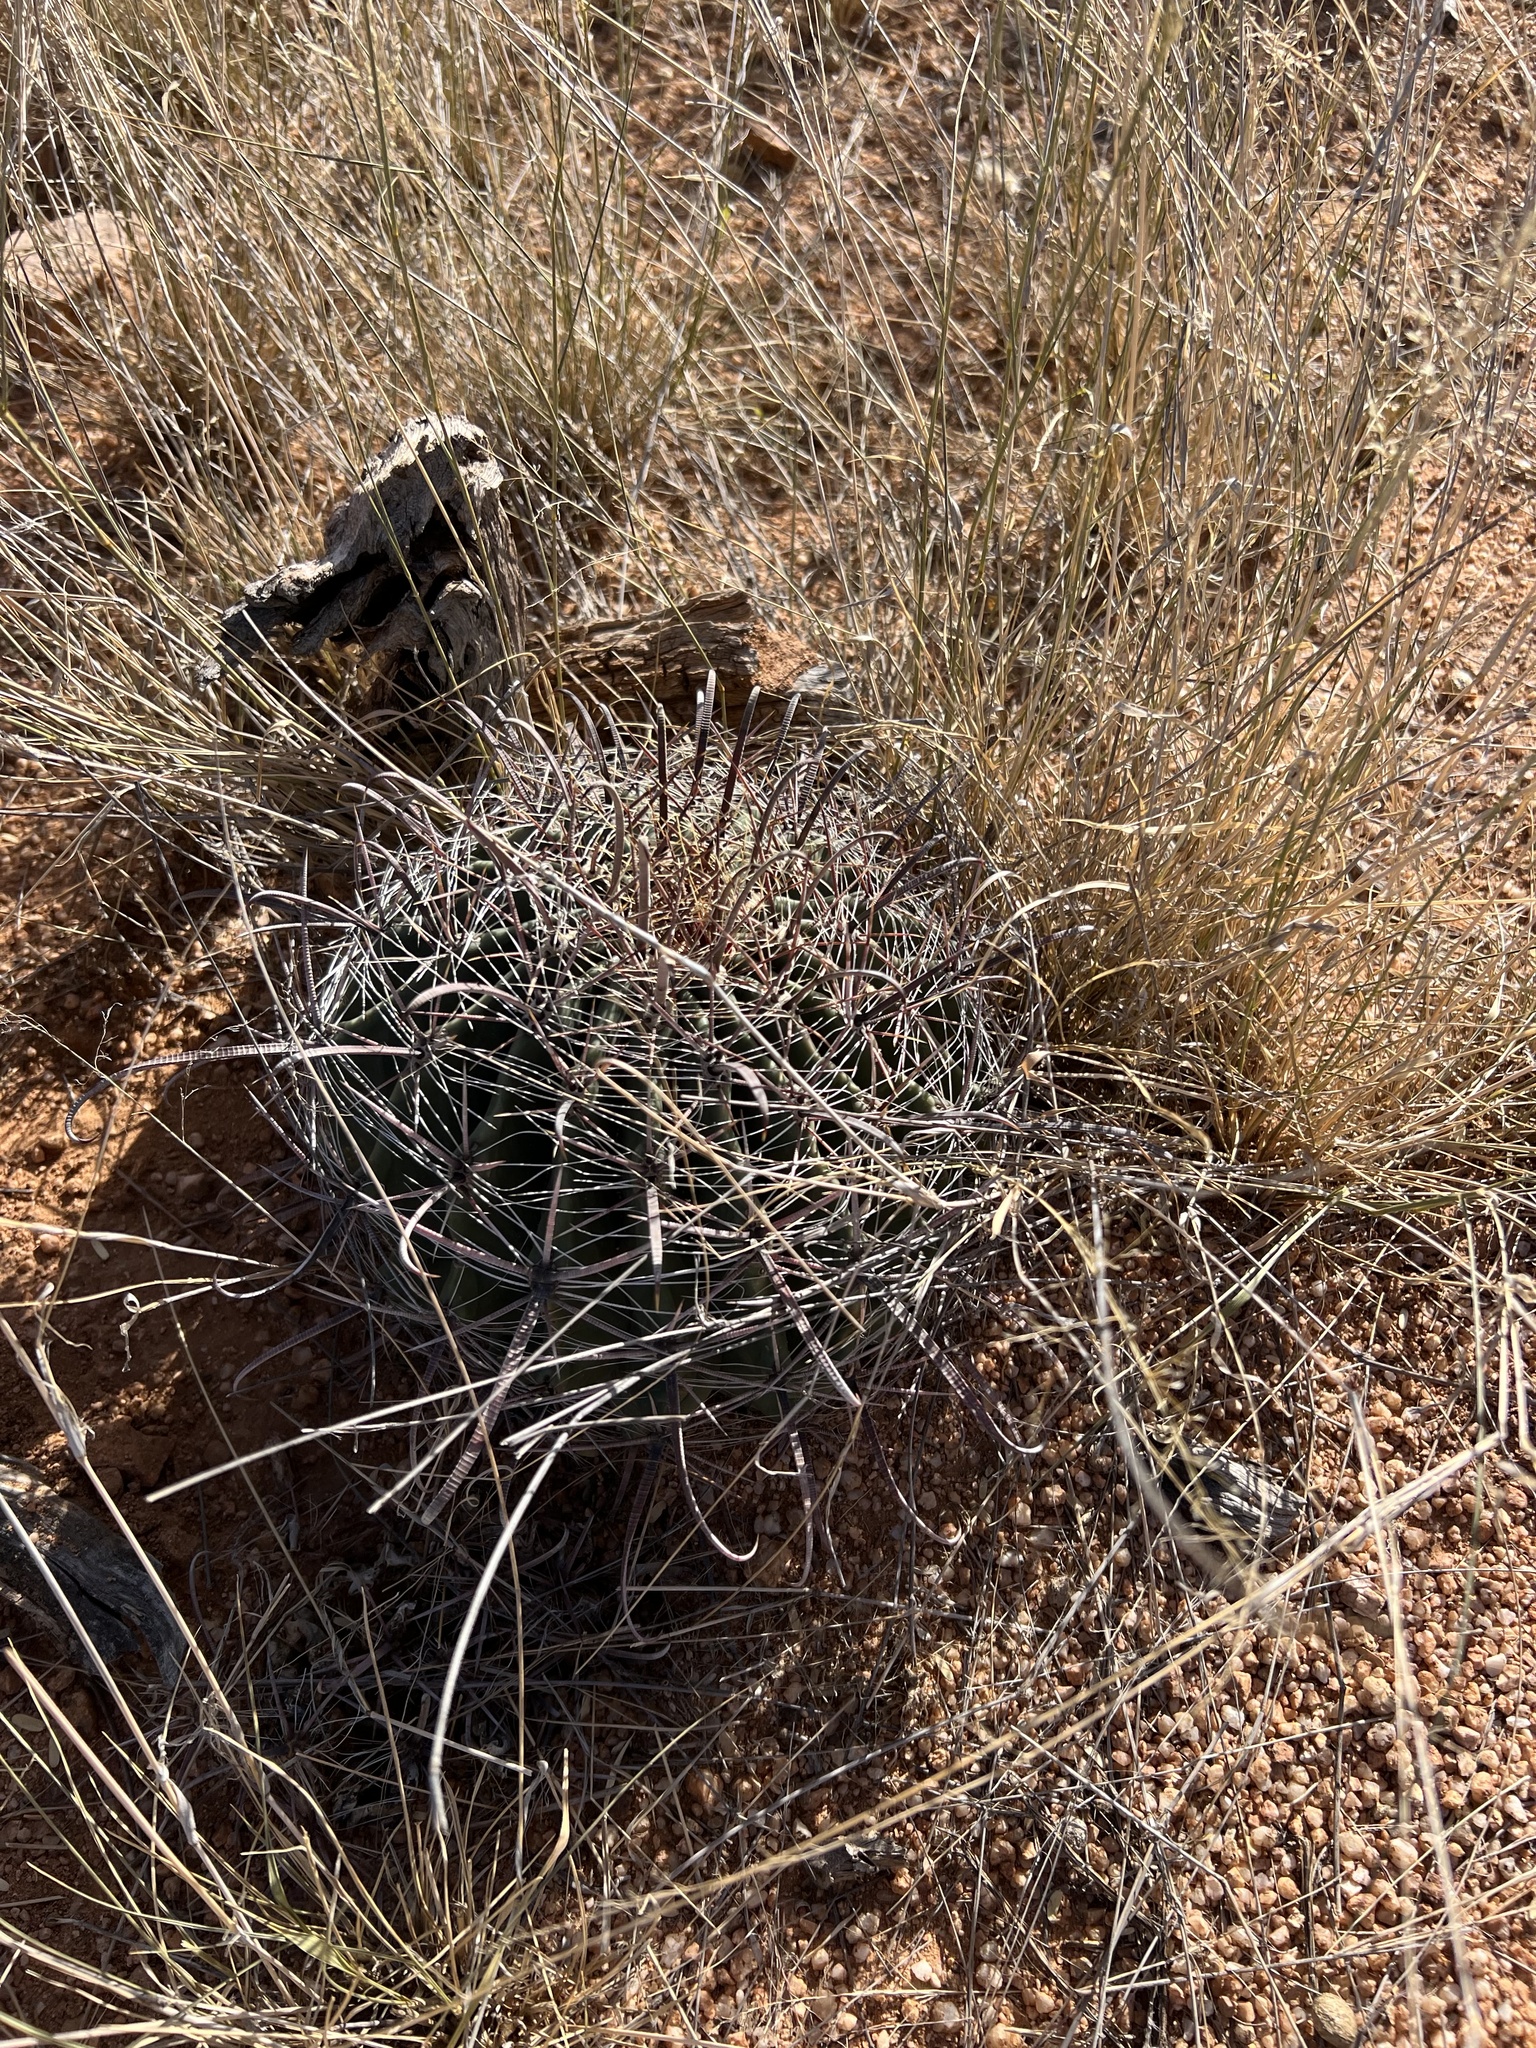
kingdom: Plantae
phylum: Tracheophyta
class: Magnoliopsida
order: Caryophyllales
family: Cactaceae
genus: Ferocactus
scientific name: Ferocactus wislizeni
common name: Candy barrel cactus
